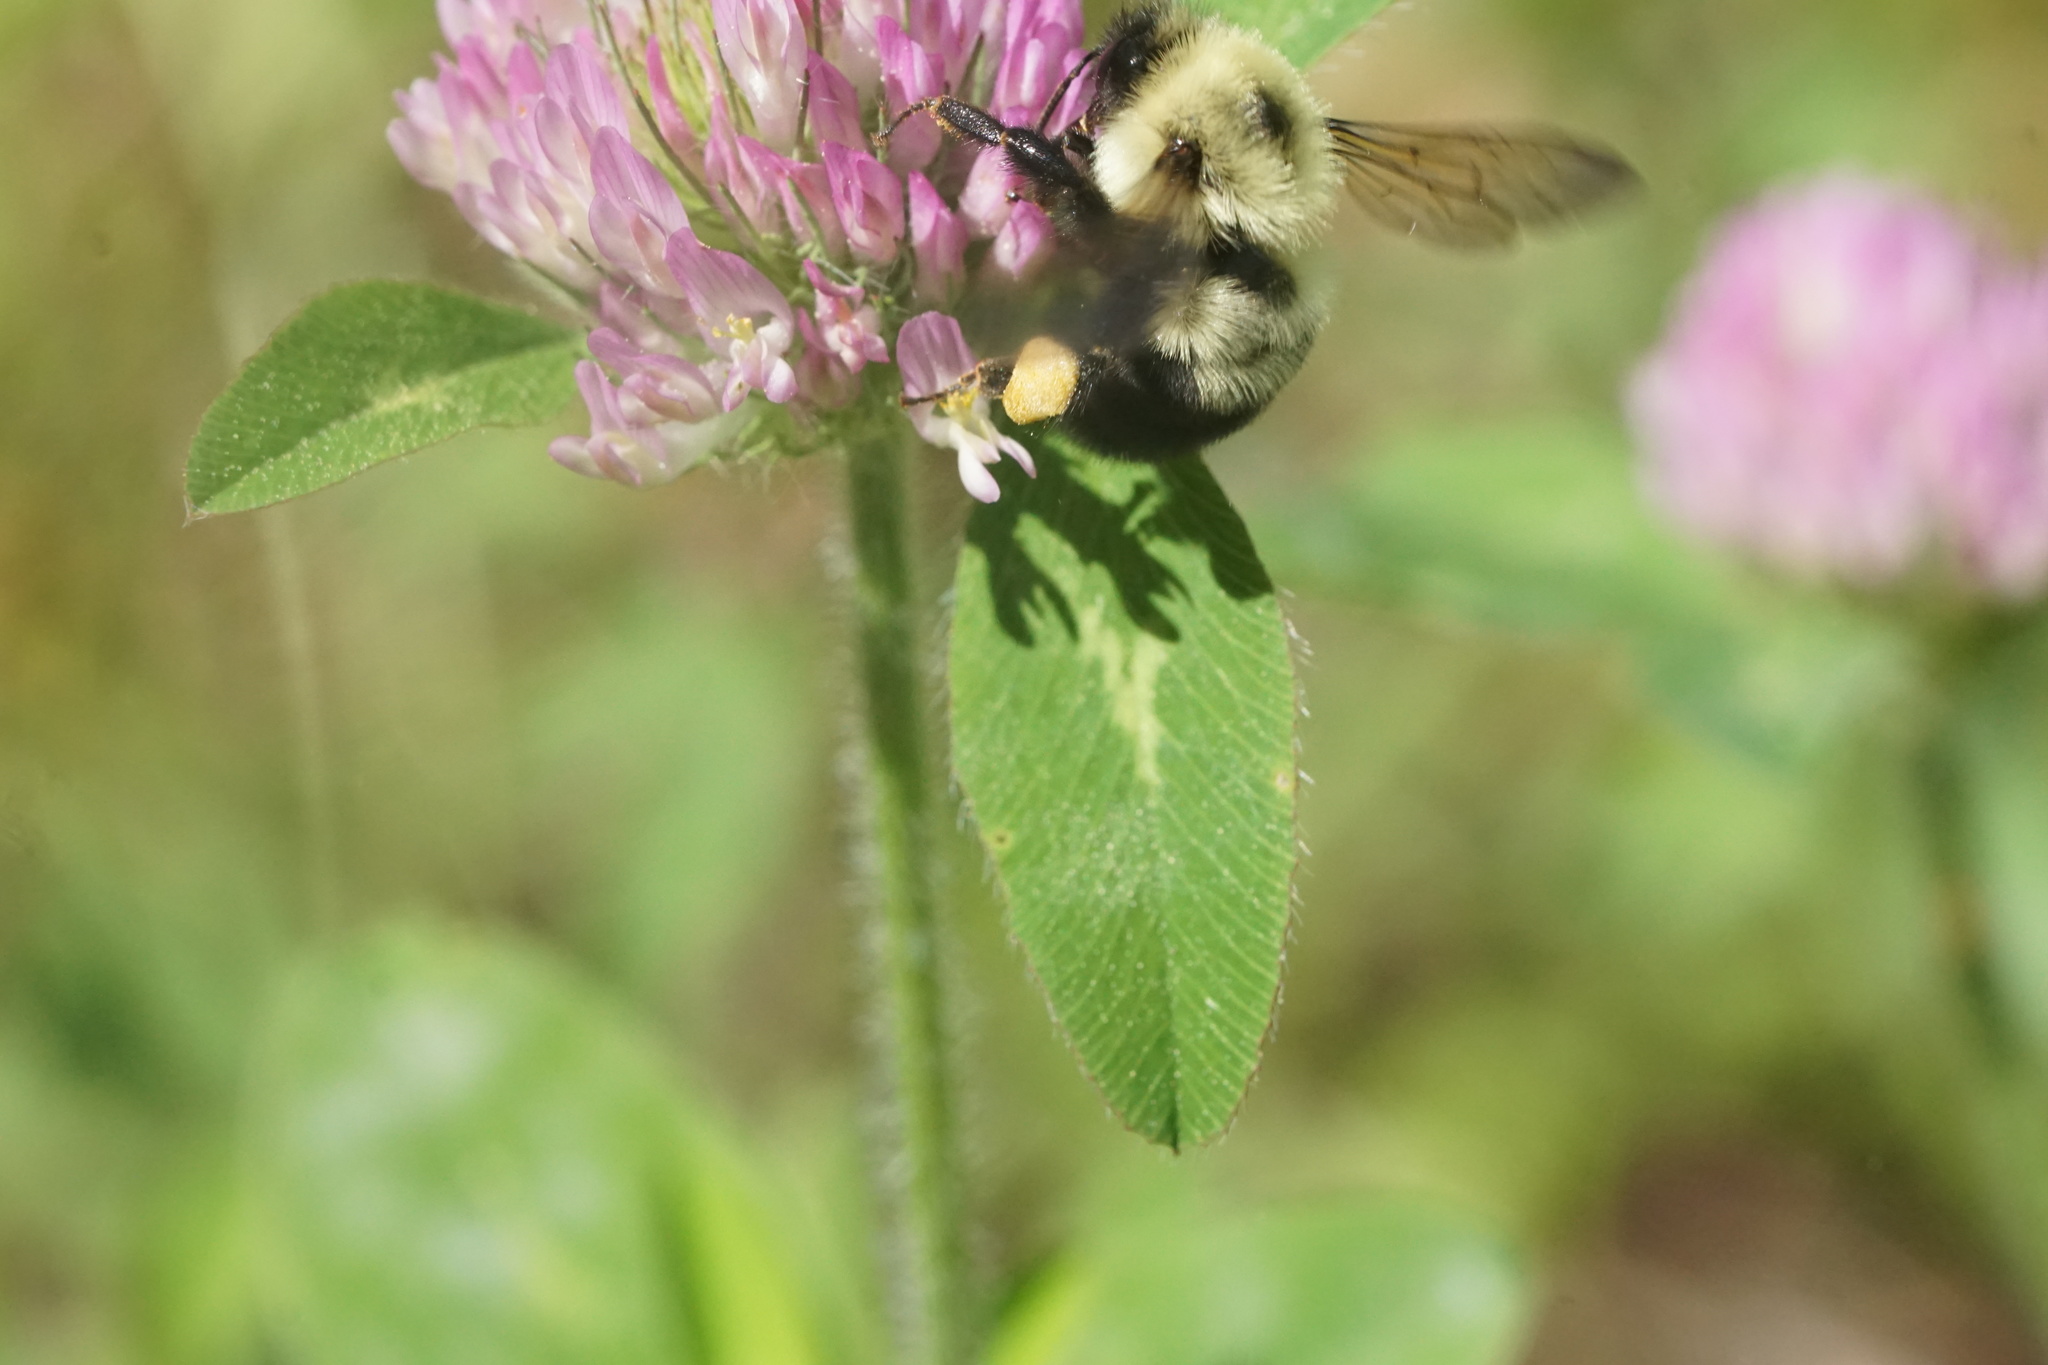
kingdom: Animalia
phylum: Arthropoda
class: Insecta
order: Hymenoptera
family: Apidae
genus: Bombus
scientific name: Bombus bimaculatus
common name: Two-spotted bumble bee
